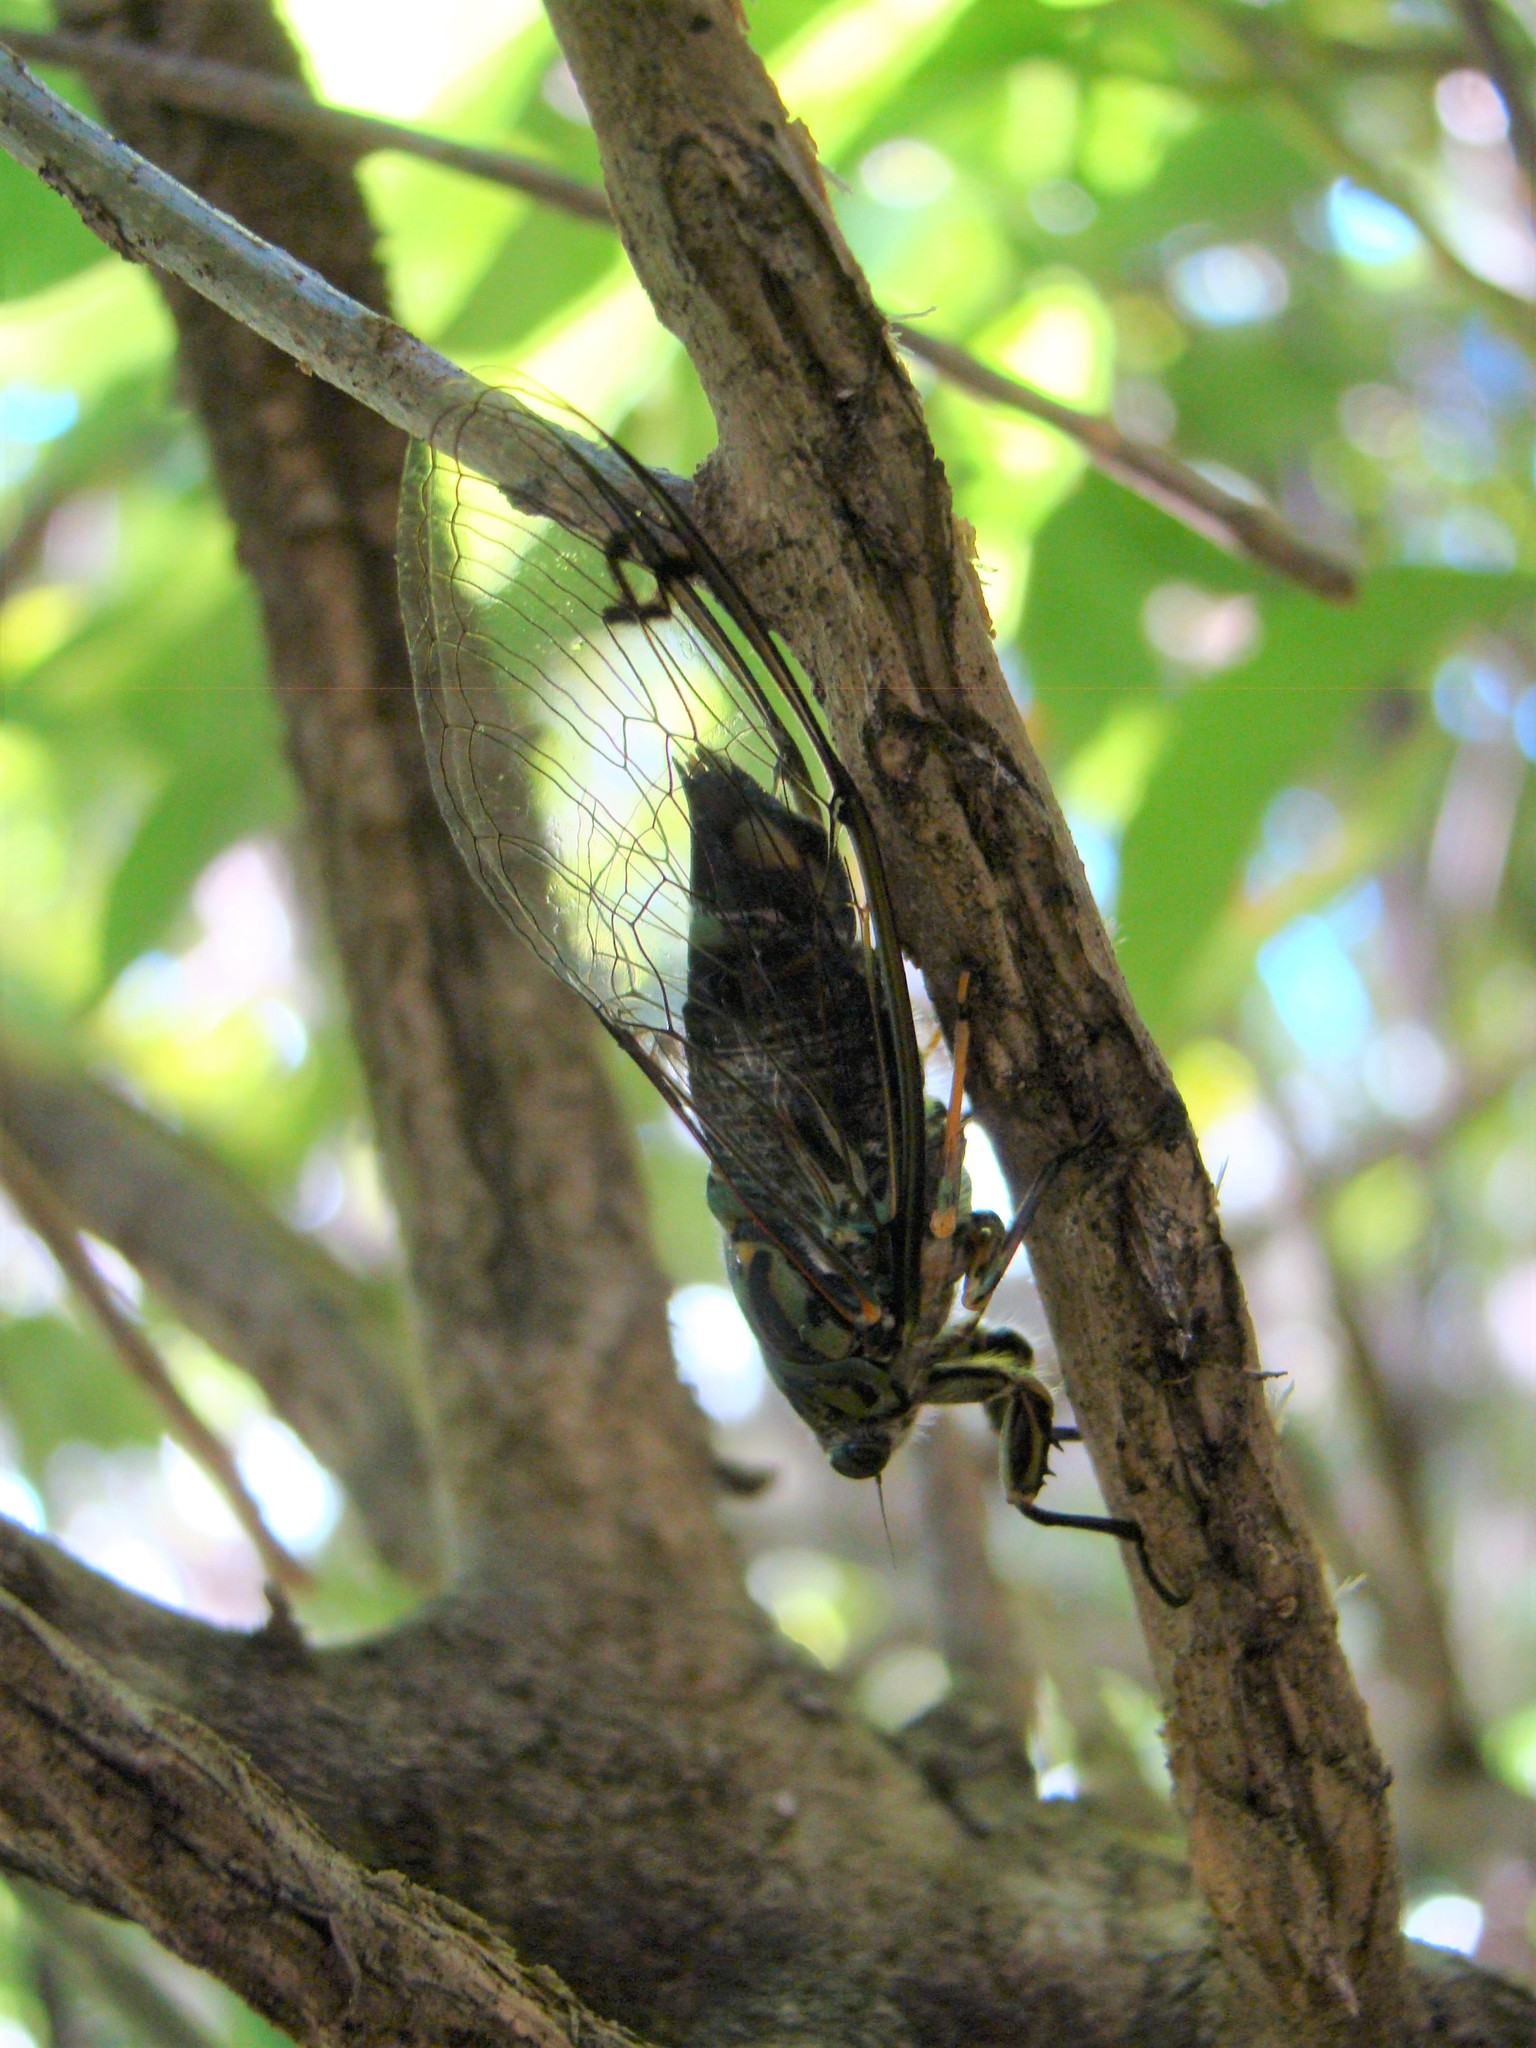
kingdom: Animalia
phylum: Arthropoda
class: Insecta
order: Hemiptera
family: Cicadidae
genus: Amphipsalta
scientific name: Amphipsalta zelandica
